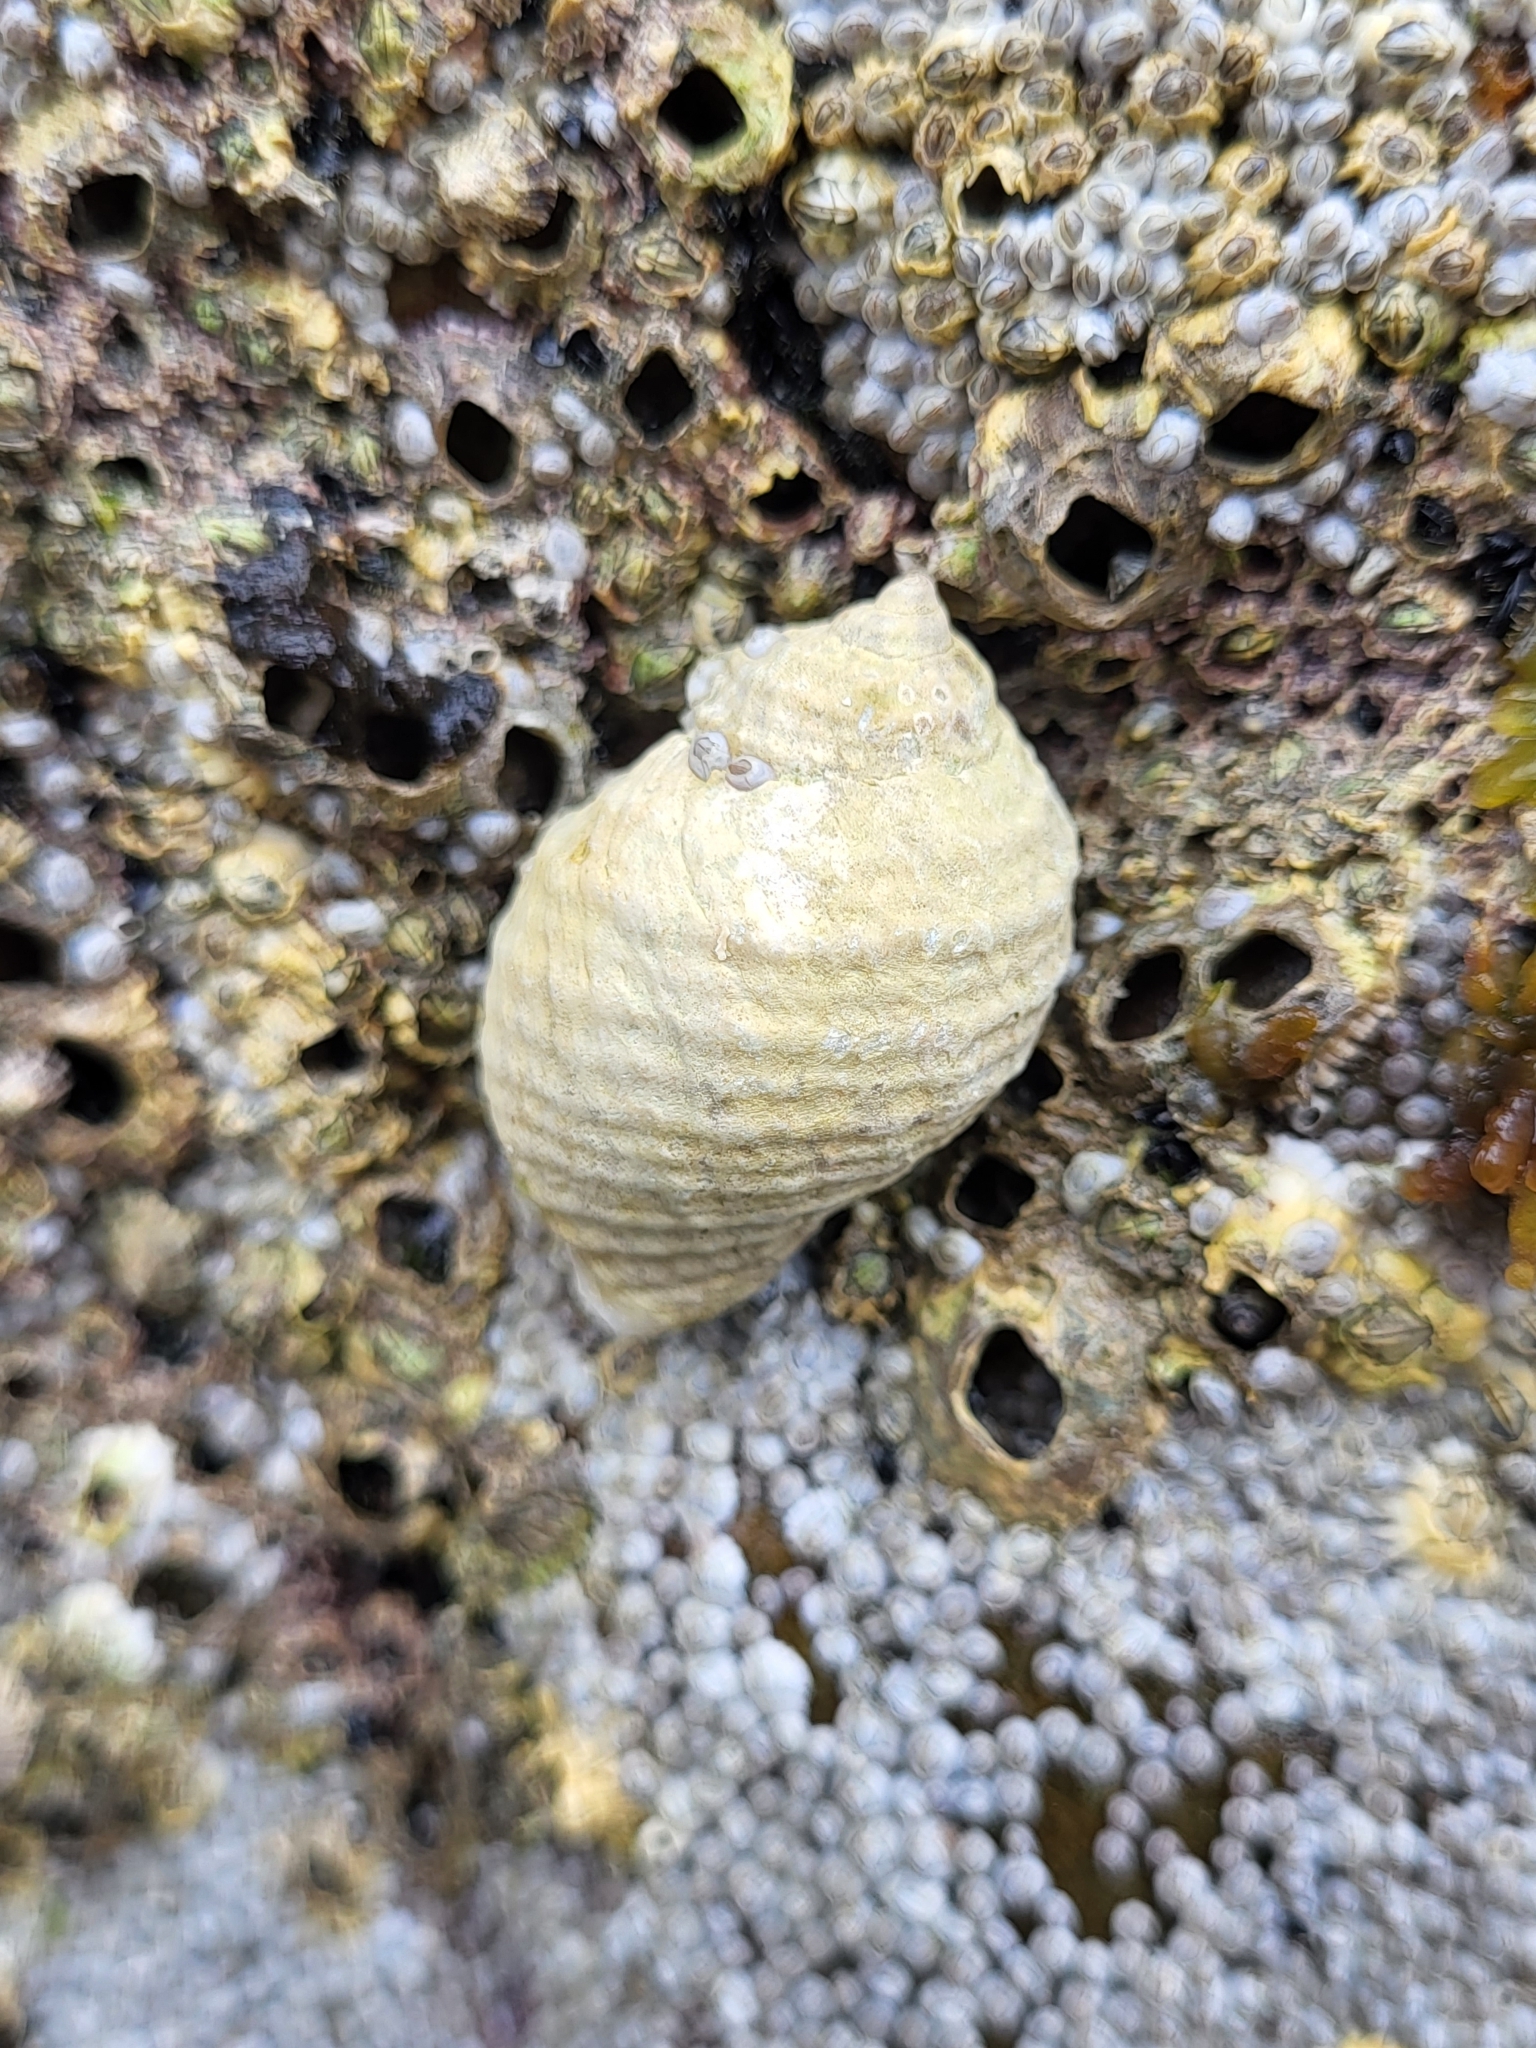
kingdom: Animalia
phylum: Mollusca
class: Gastropoda
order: Neogastropoda
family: Muricidae
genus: Nucella
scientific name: Nucella lapillus
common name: Dog whelk
